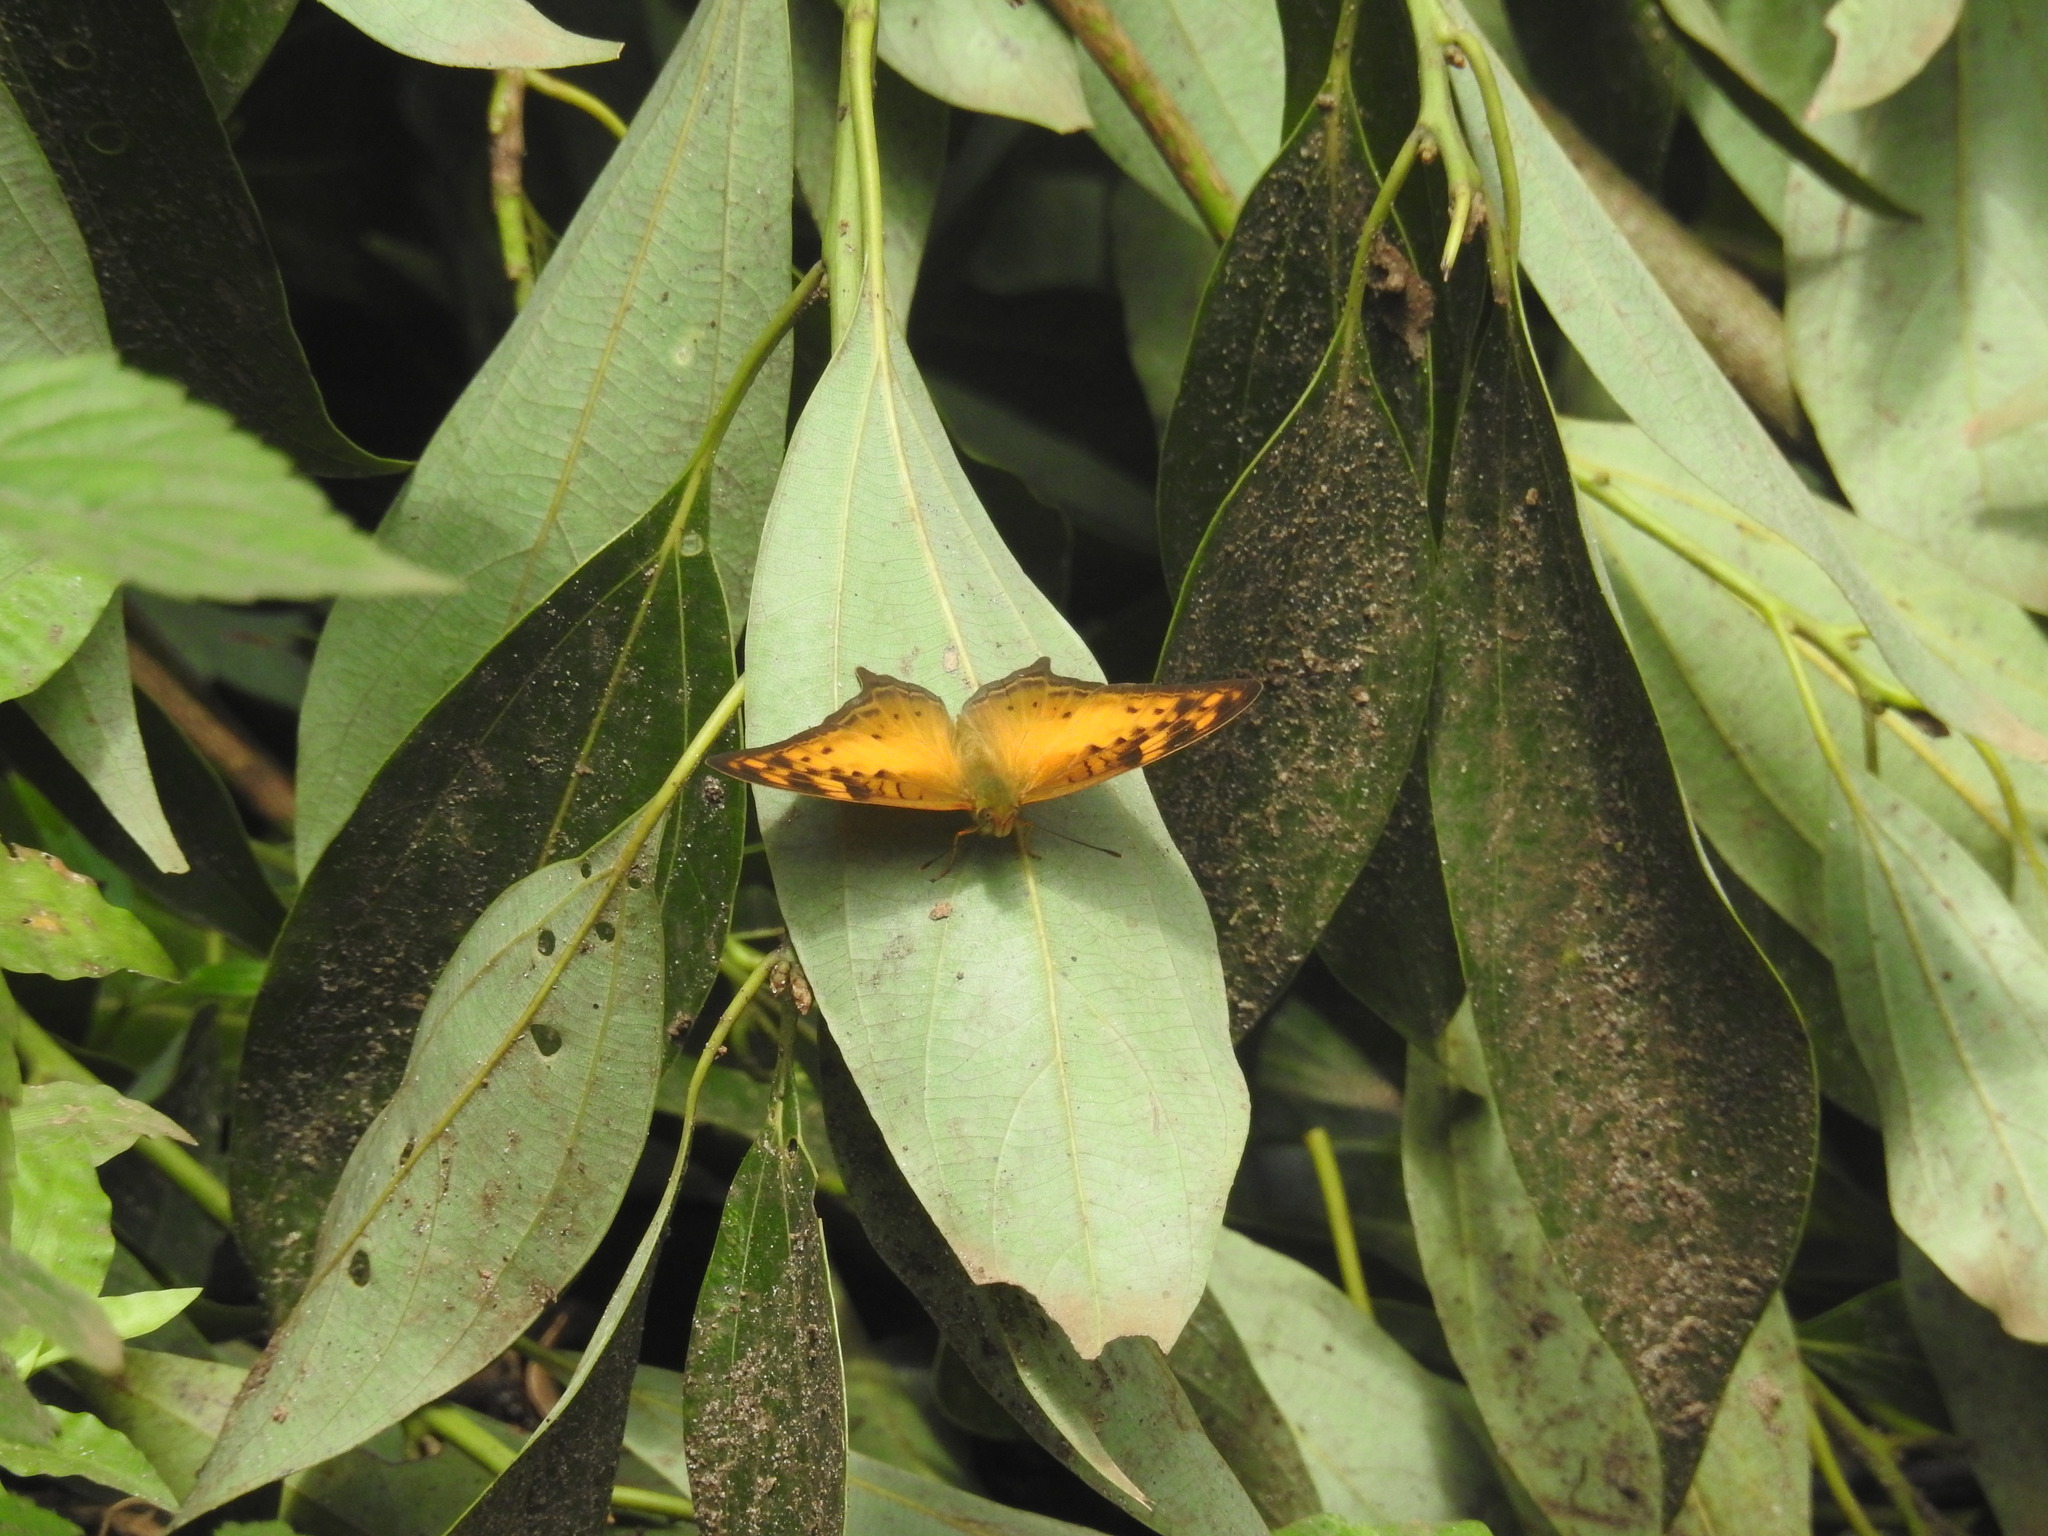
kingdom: Animalia
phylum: Arthropoda
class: Insecta
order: Lepidoptera
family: Nymphalidae
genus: Vagrans
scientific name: Vagrans sinha
